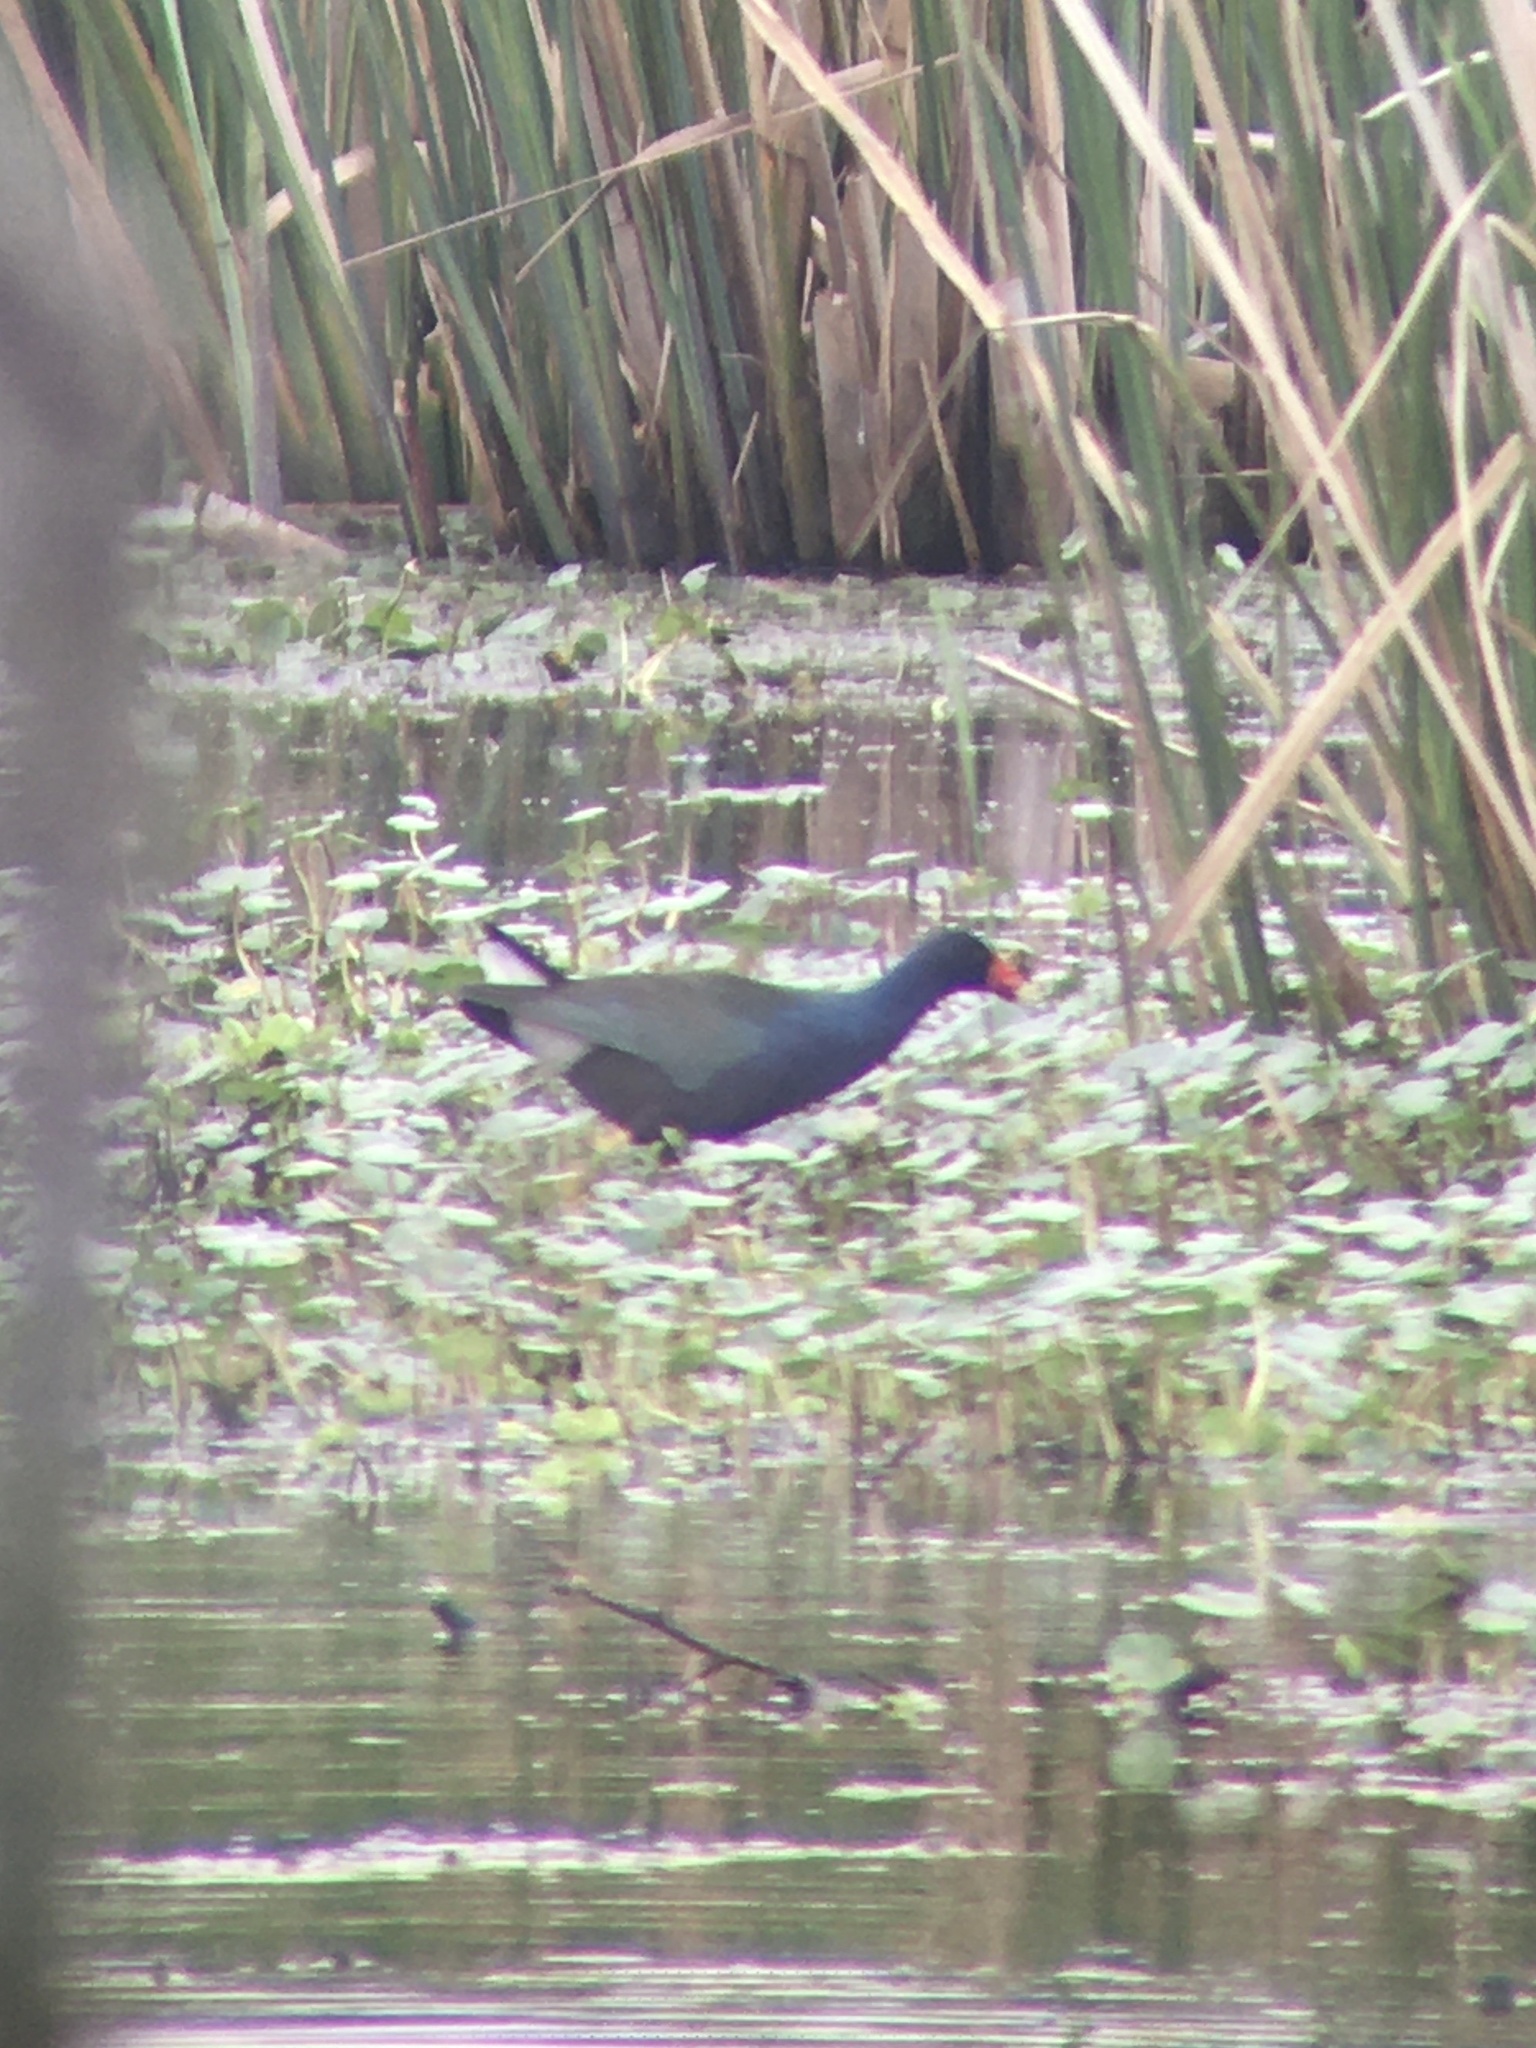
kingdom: Animalia
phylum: Chordata
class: Aves
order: Gruiformes
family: Rallidae
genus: Porphyrio
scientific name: Porphyrio martinica
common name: Purple gallinule
